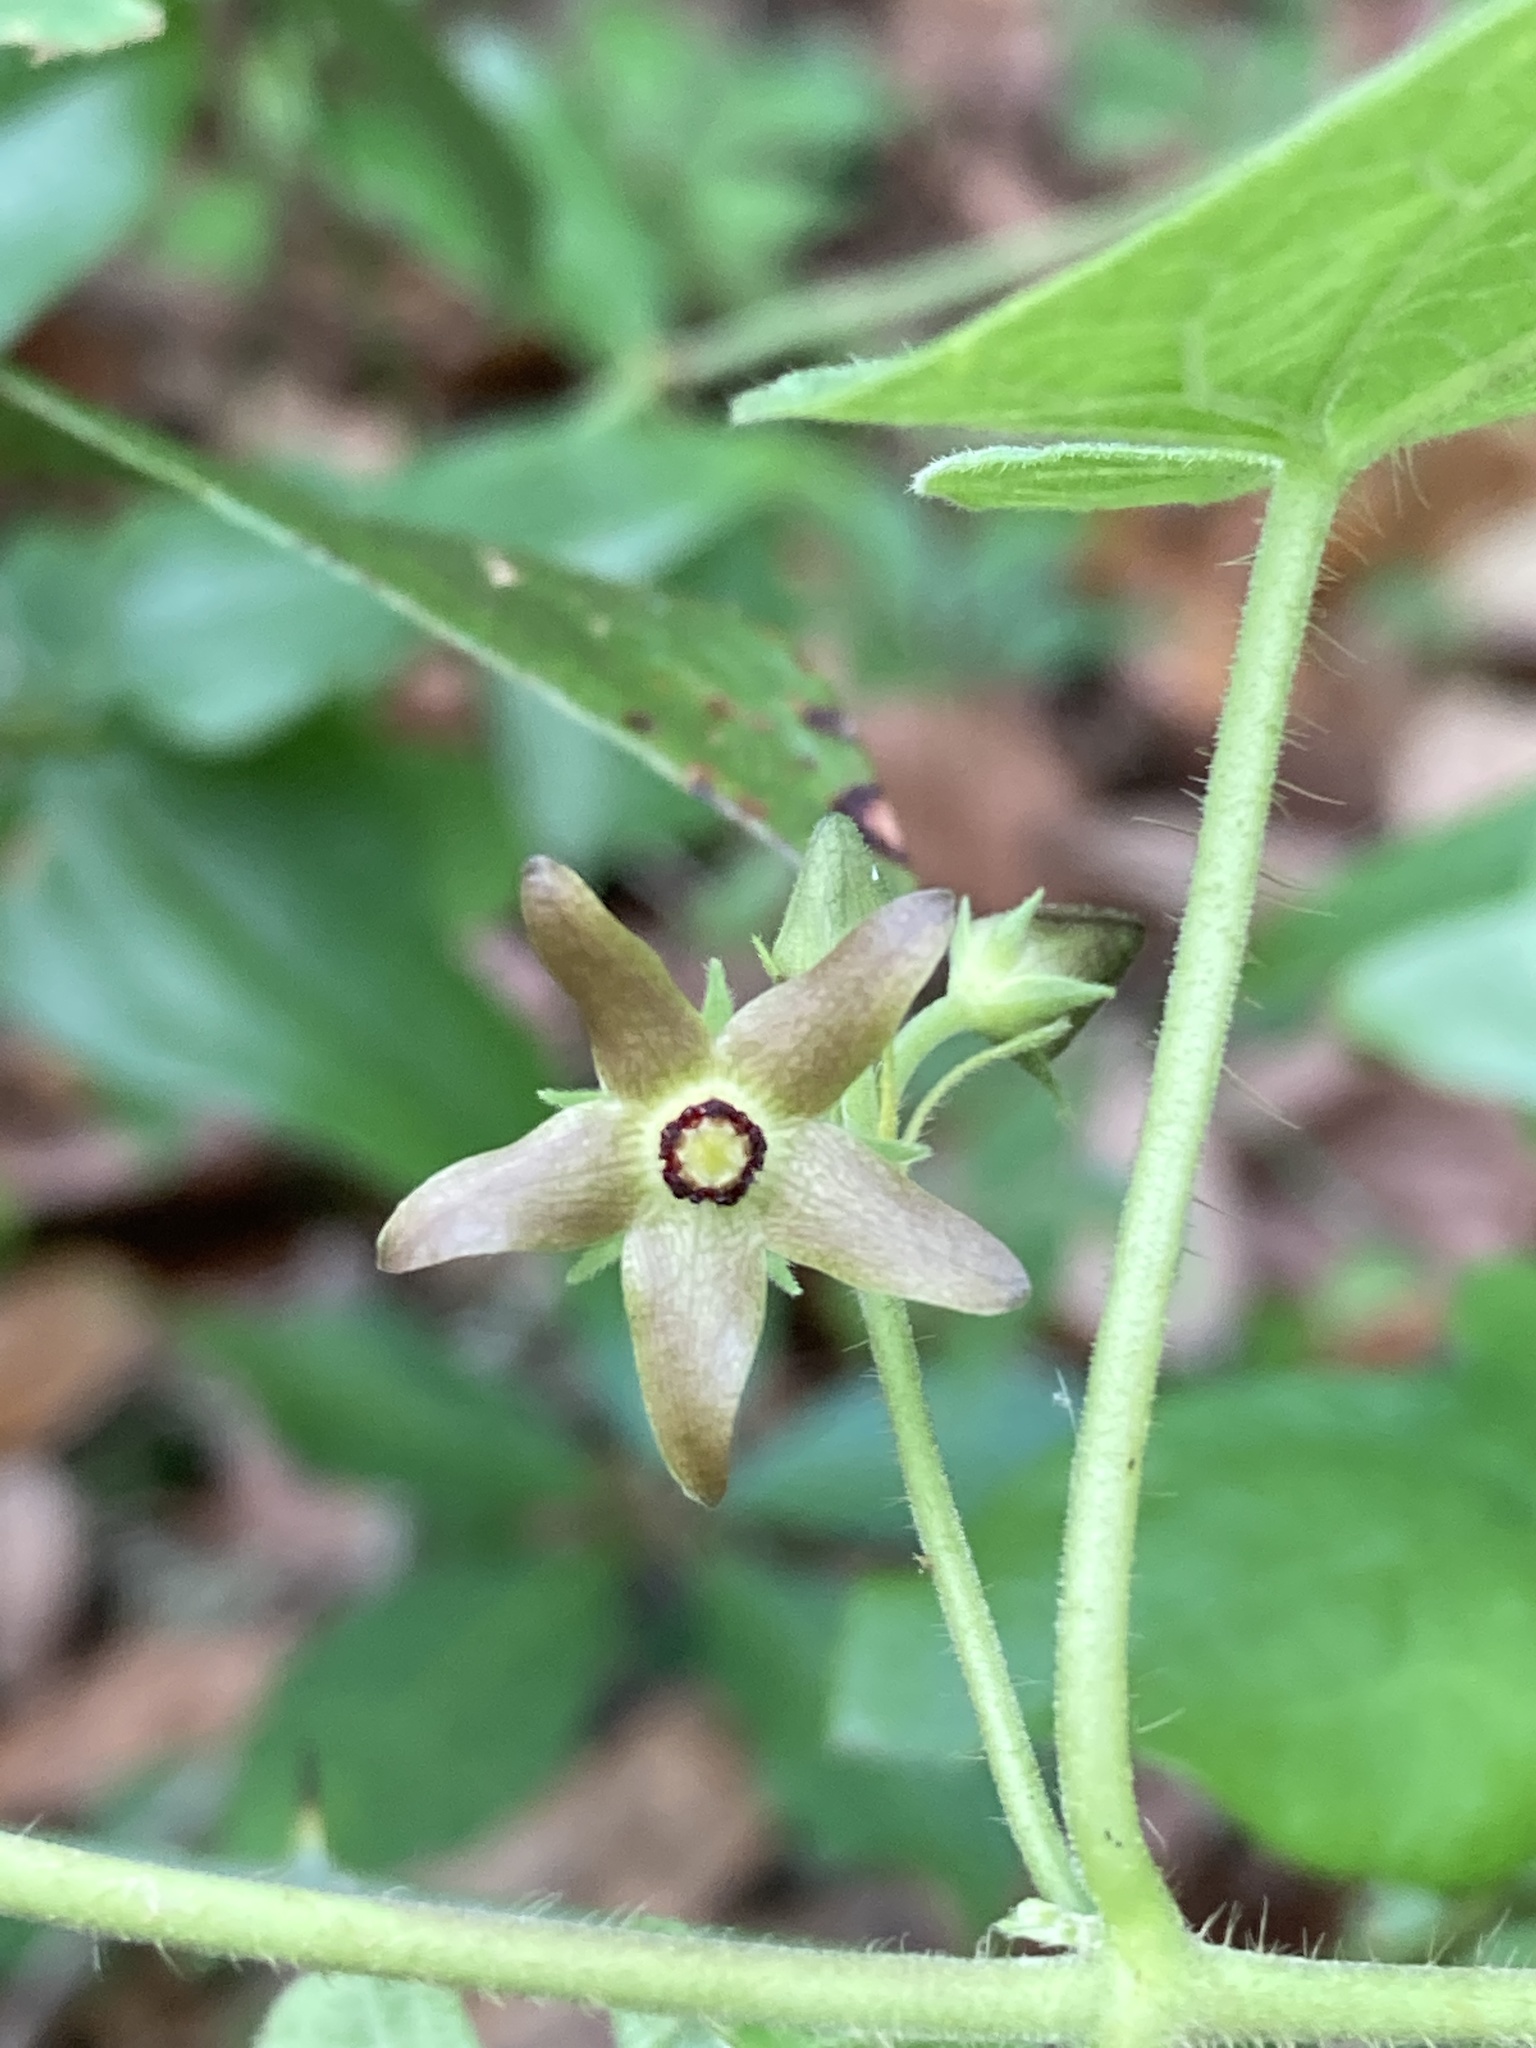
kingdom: Plantae
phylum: Tracheophyta
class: Magnoliopsida
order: Gentianales
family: Apocynaceae
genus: Matelea
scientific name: Matelea floridana
